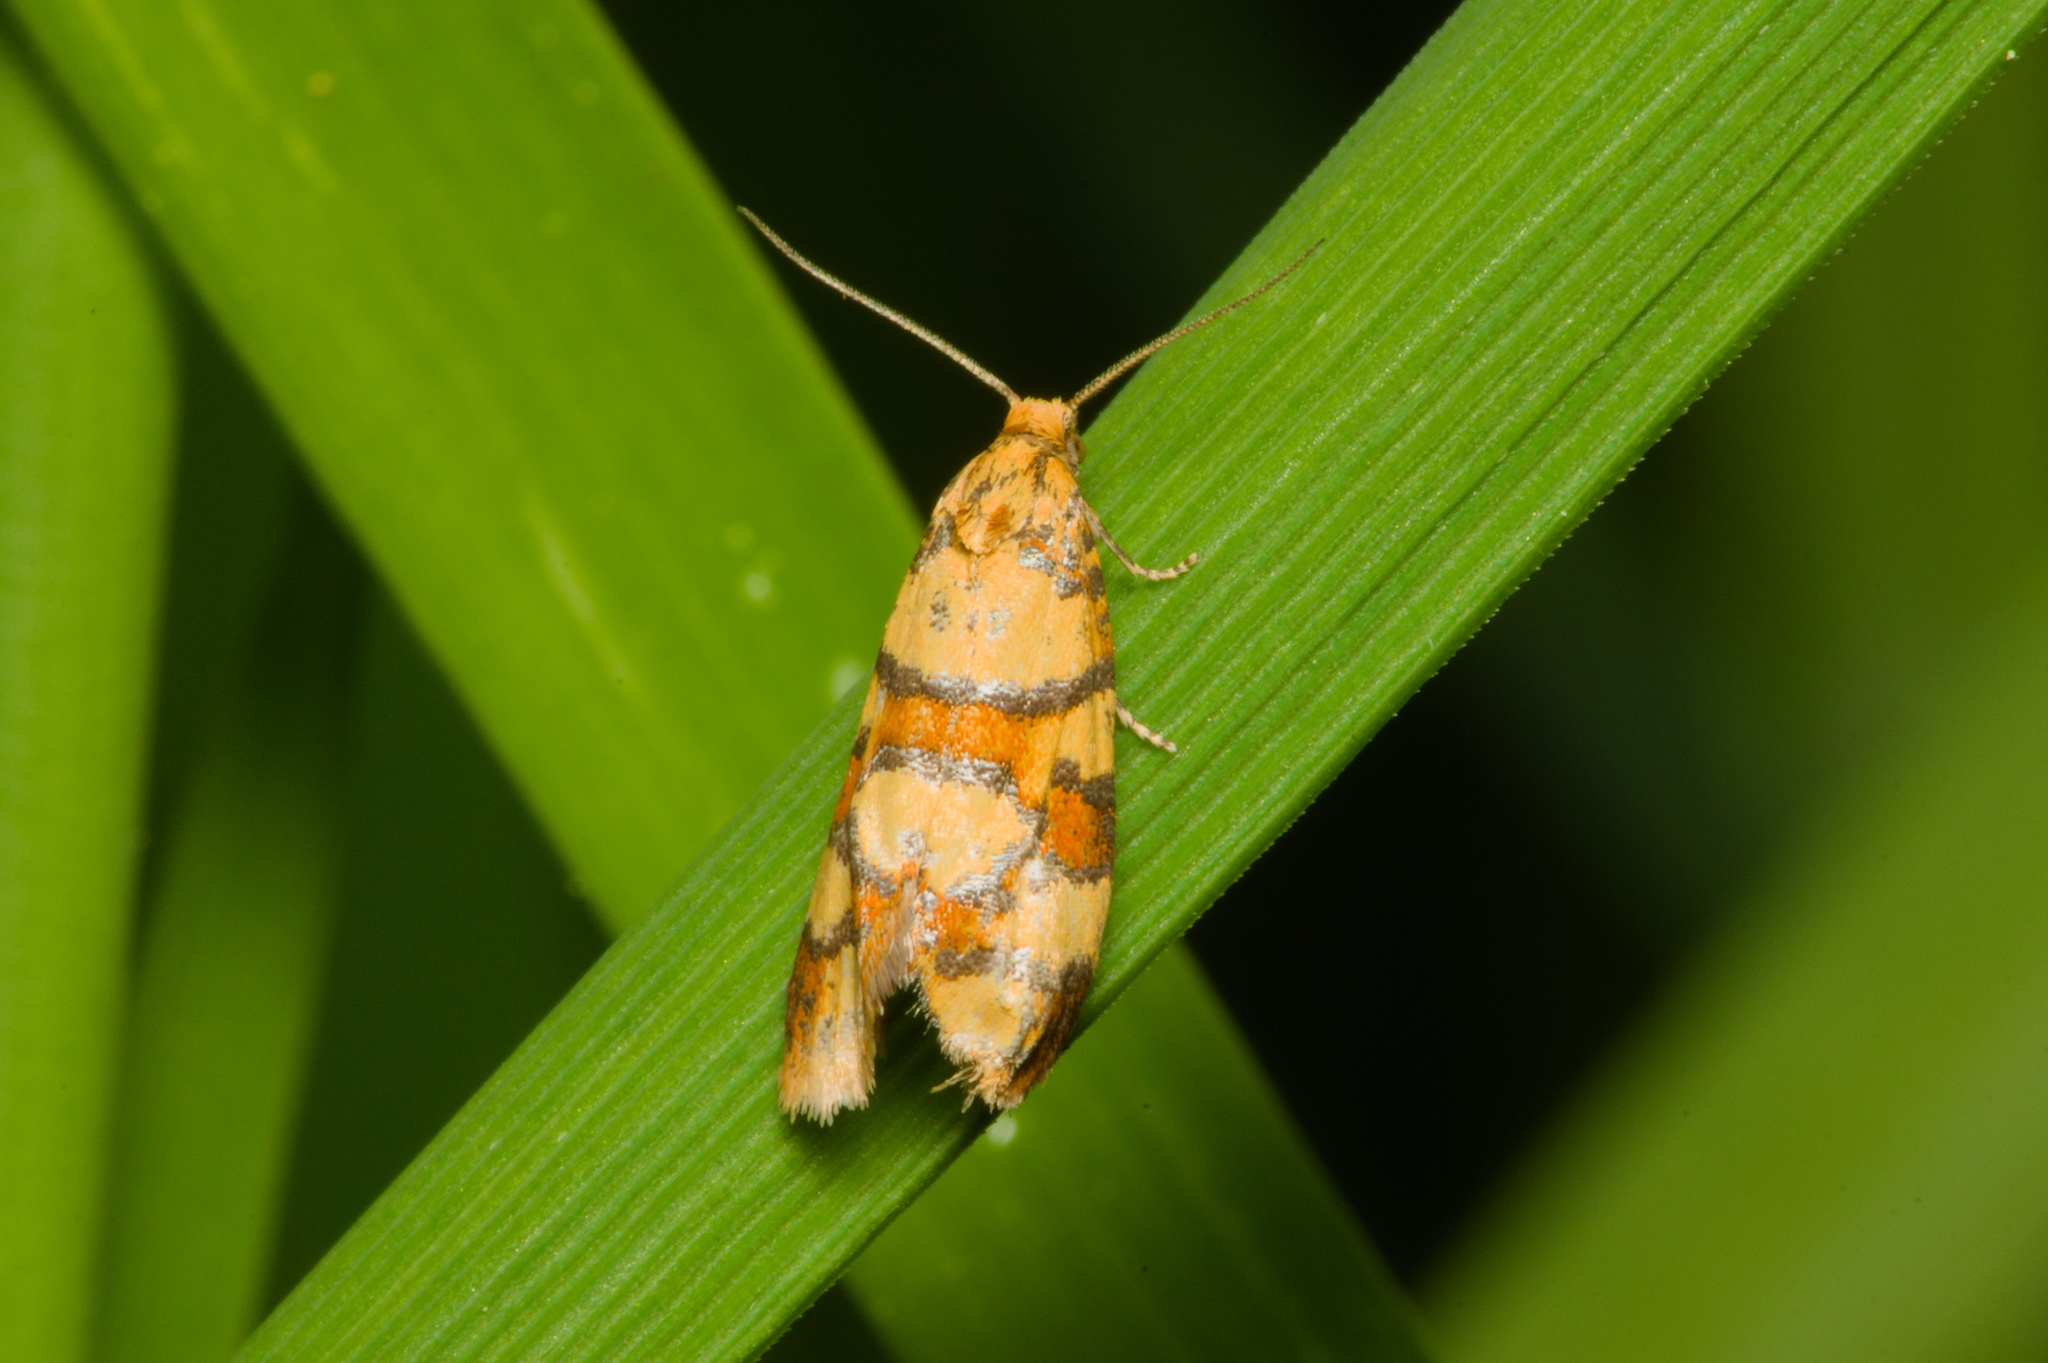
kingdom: Animalia
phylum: Arthropoda
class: Insecta
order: Lepidoptera
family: Tortricidae
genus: Aethes
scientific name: Aethes tesserana
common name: Downland conch
